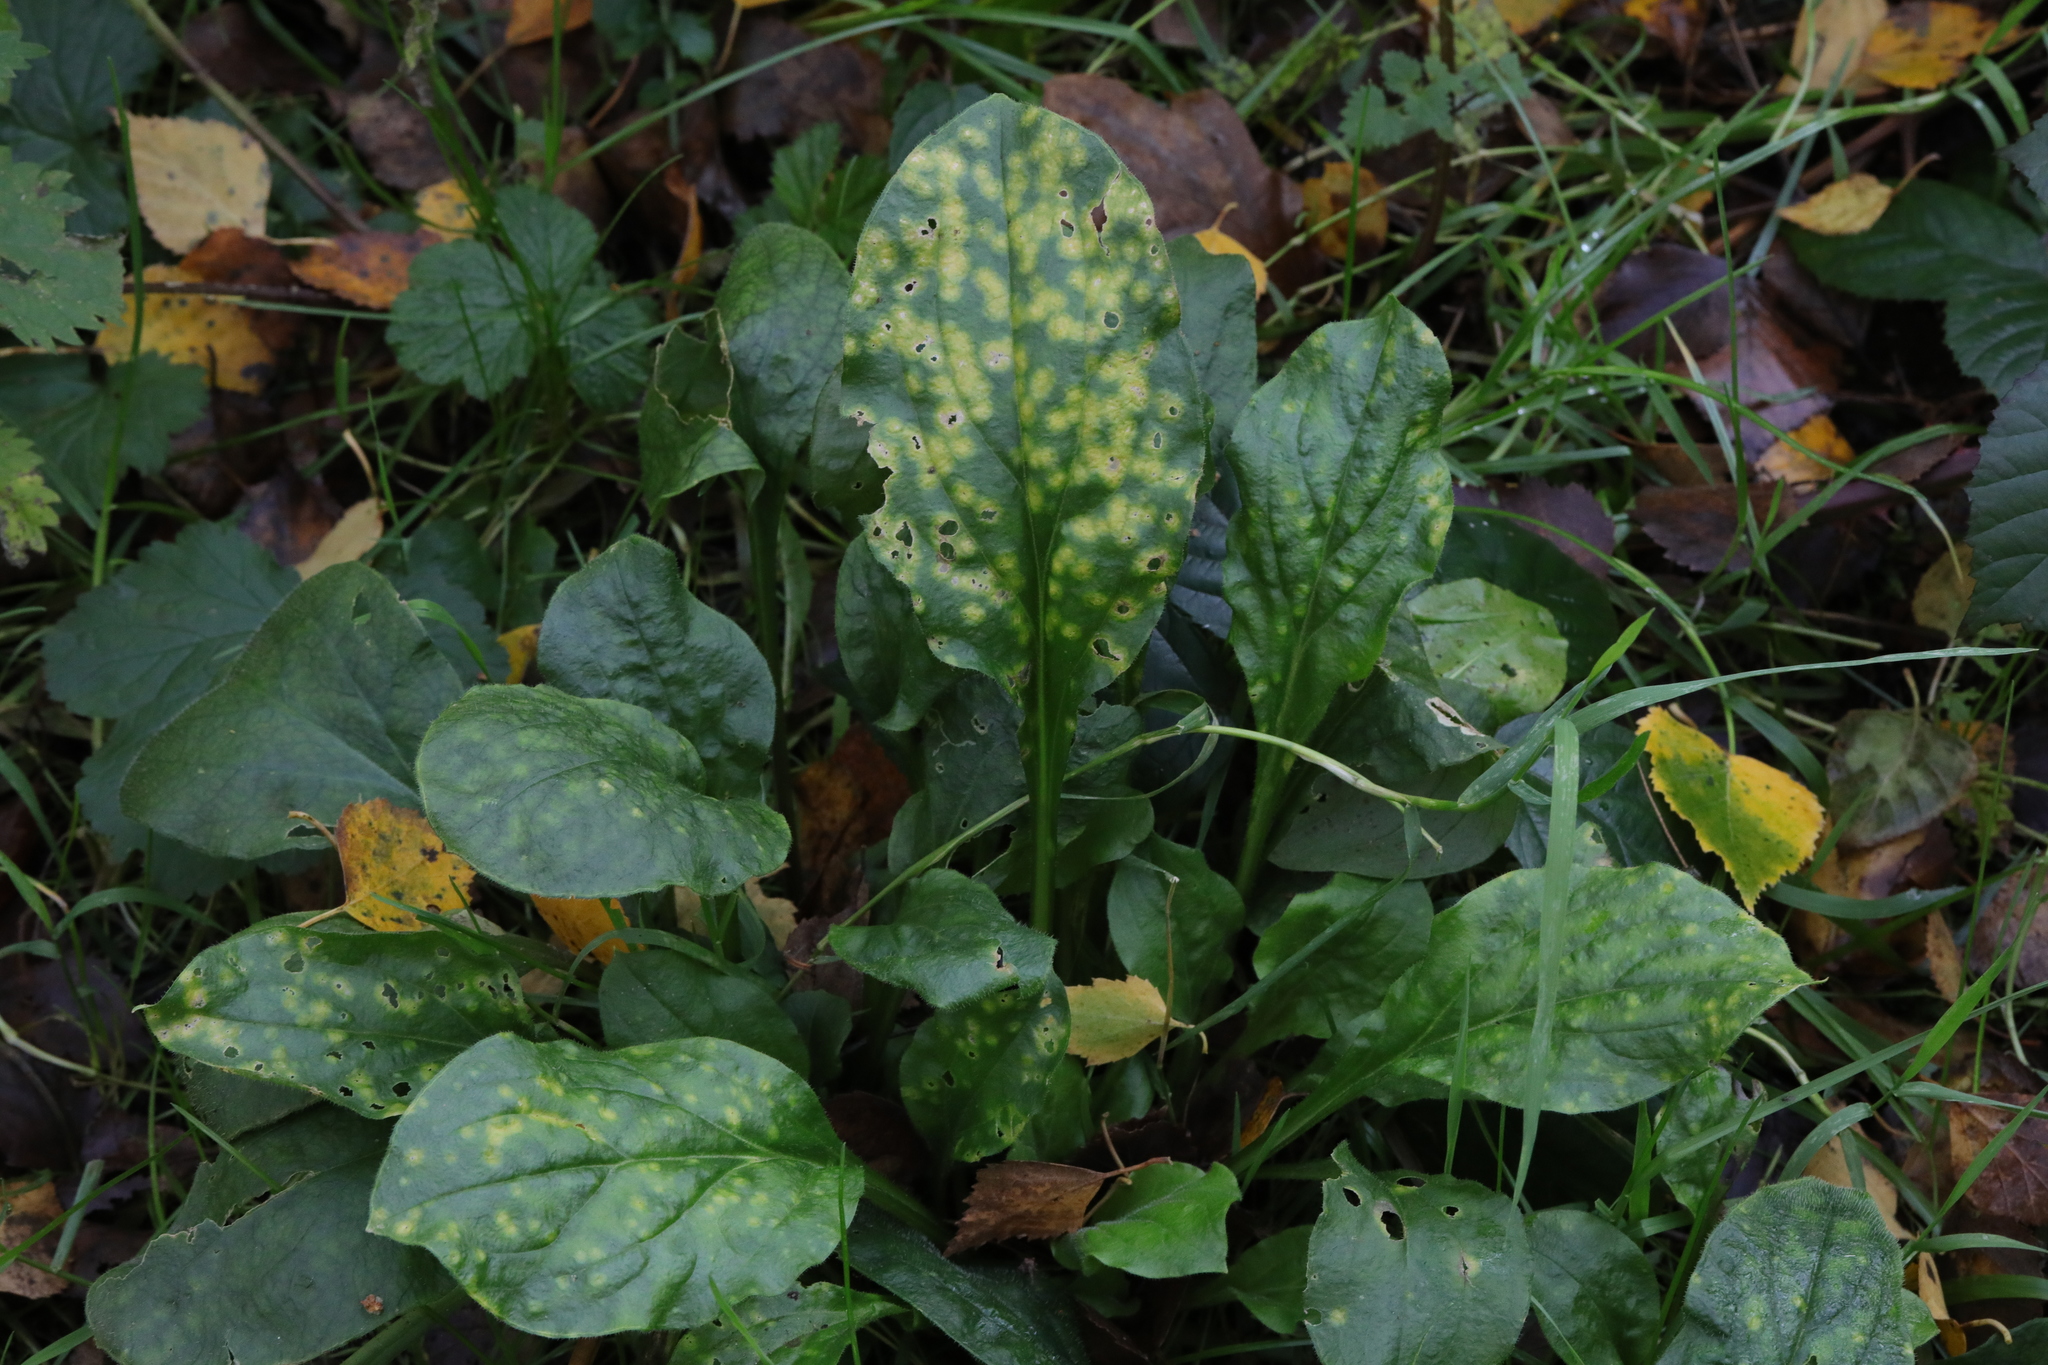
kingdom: Plantae
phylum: Tracheophyta
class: Magnoliopsida
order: Caryophyllales
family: Caryophyllaceae
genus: Silene
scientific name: Silene dioica
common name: Red campion
